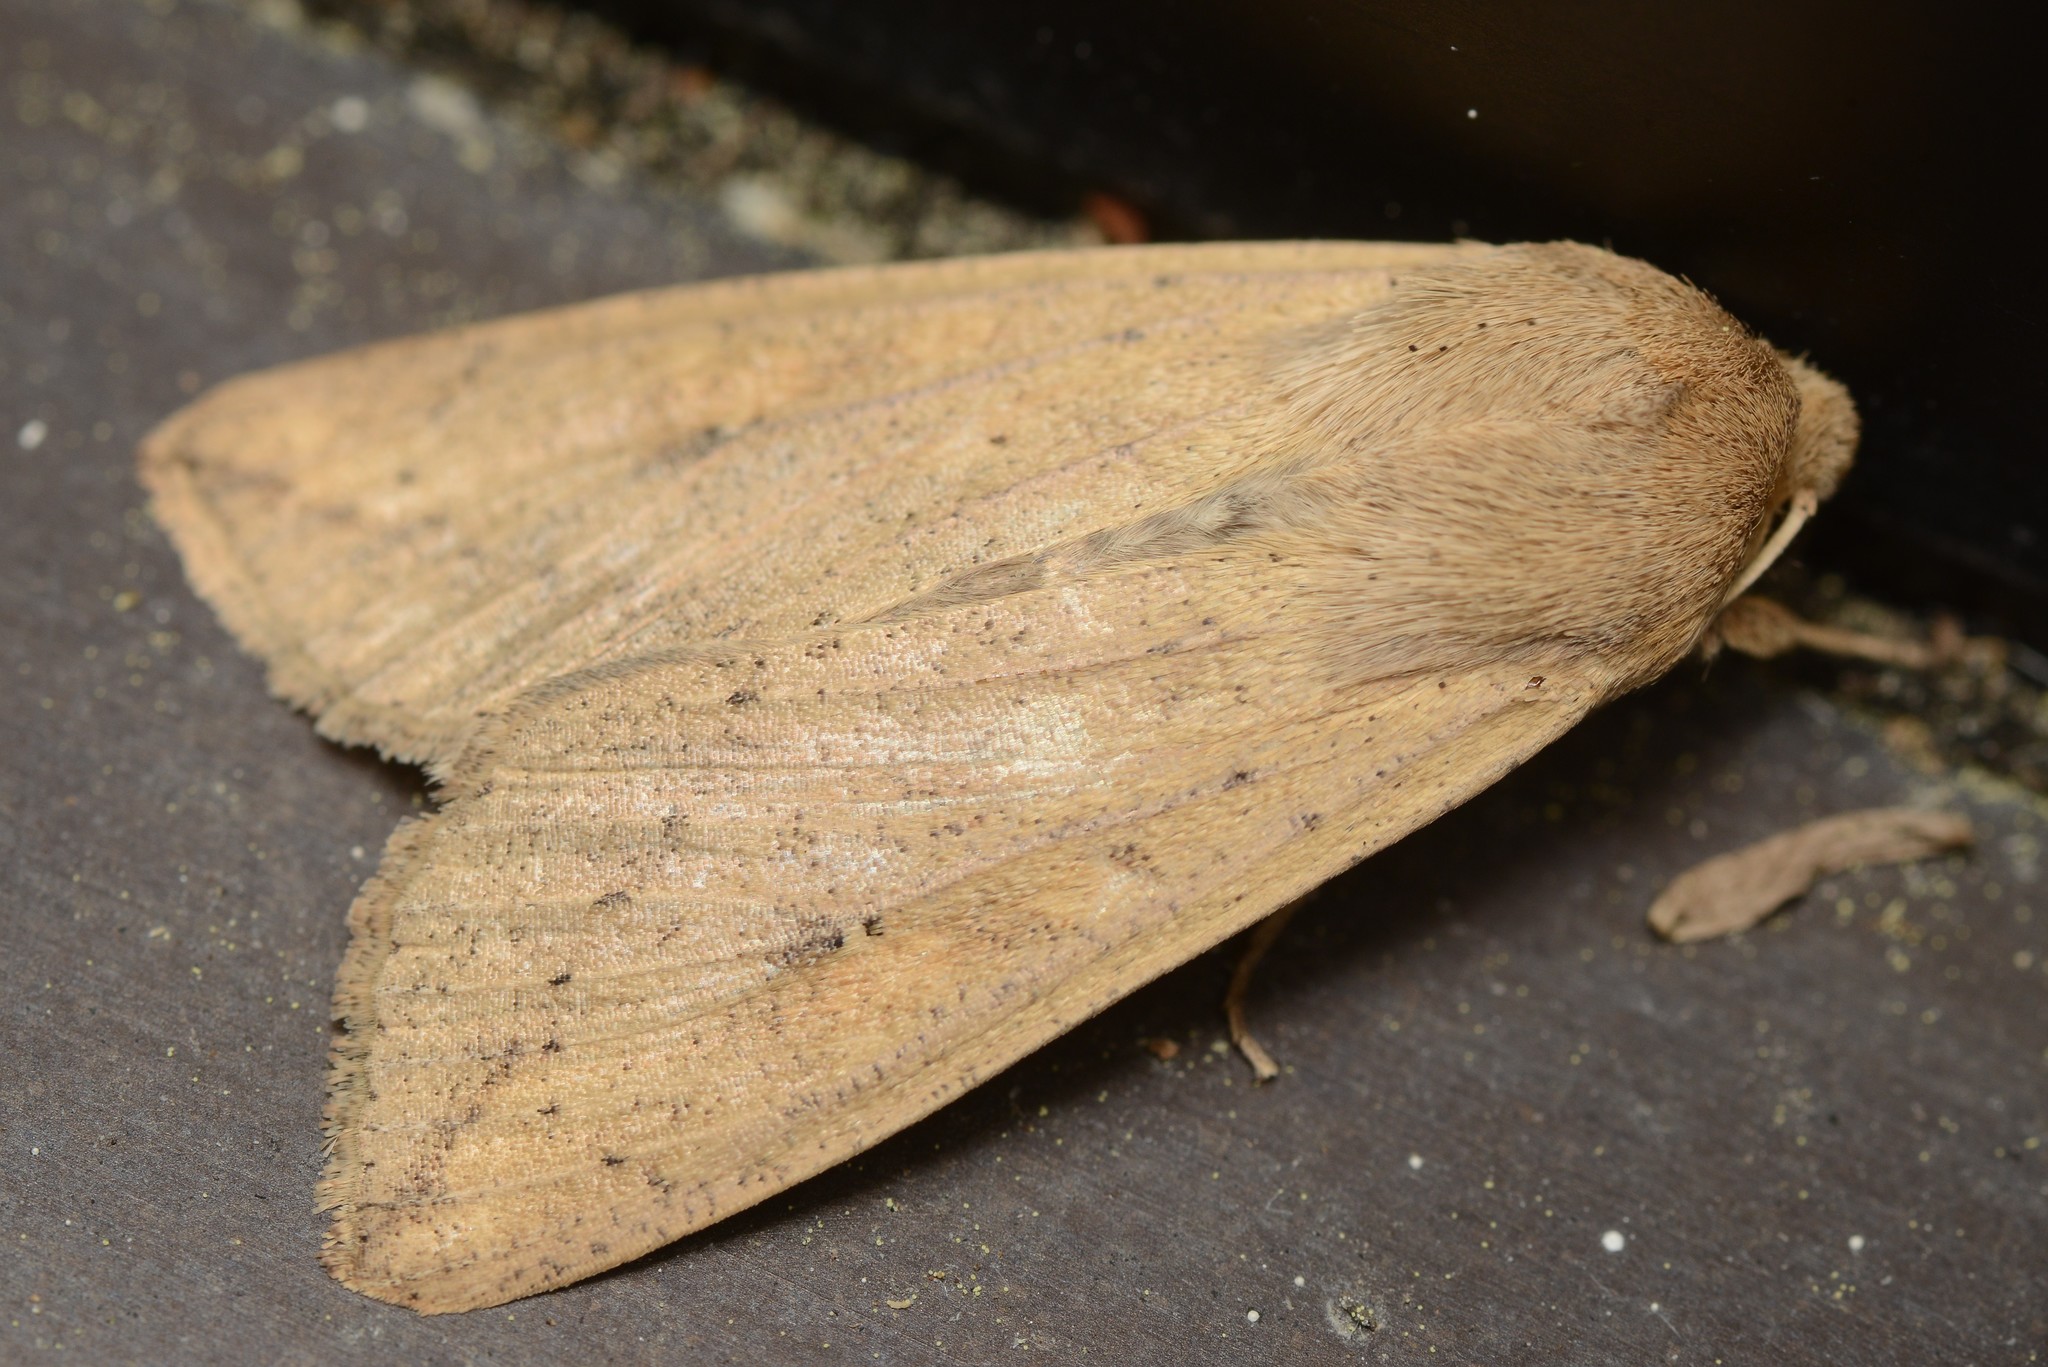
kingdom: Animalia
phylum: Arthropoda
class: Insecta
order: Lepidoptera
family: Noctuidae
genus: Mythimna
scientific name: Mythimna separata
